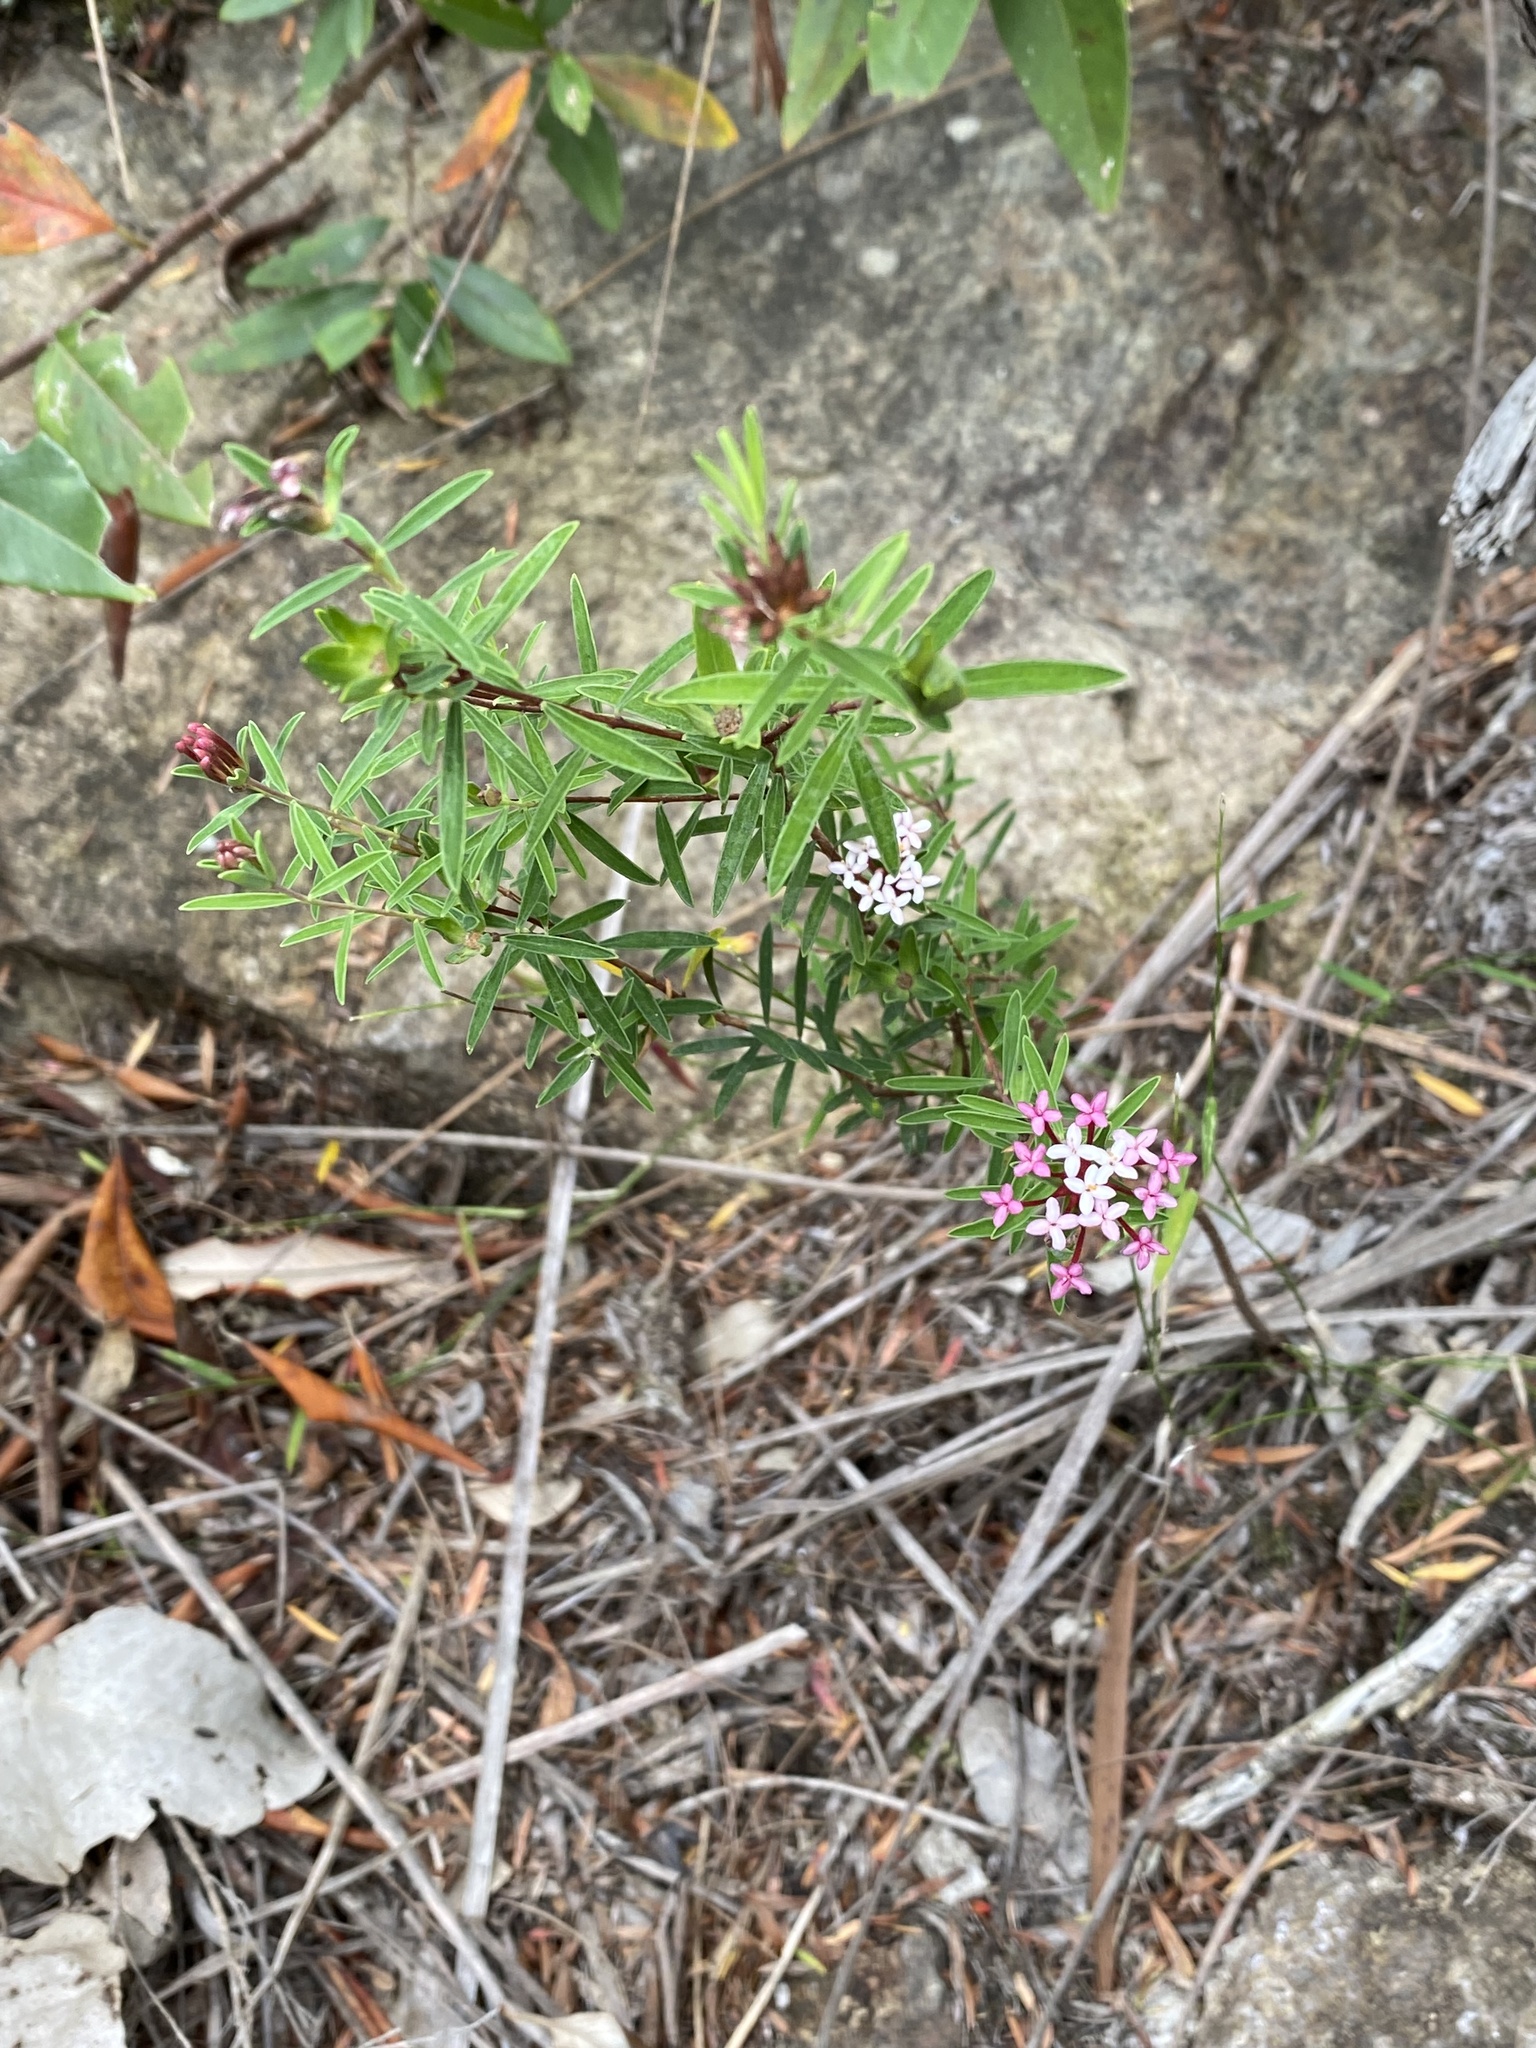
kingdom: Plantae
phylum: Tracheophyta
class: Magnoliopsida
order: Malvales
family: Thymelaeaceae
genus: Pimelea
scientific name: Pimelea linifolia
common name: Queen-of-the-bush
